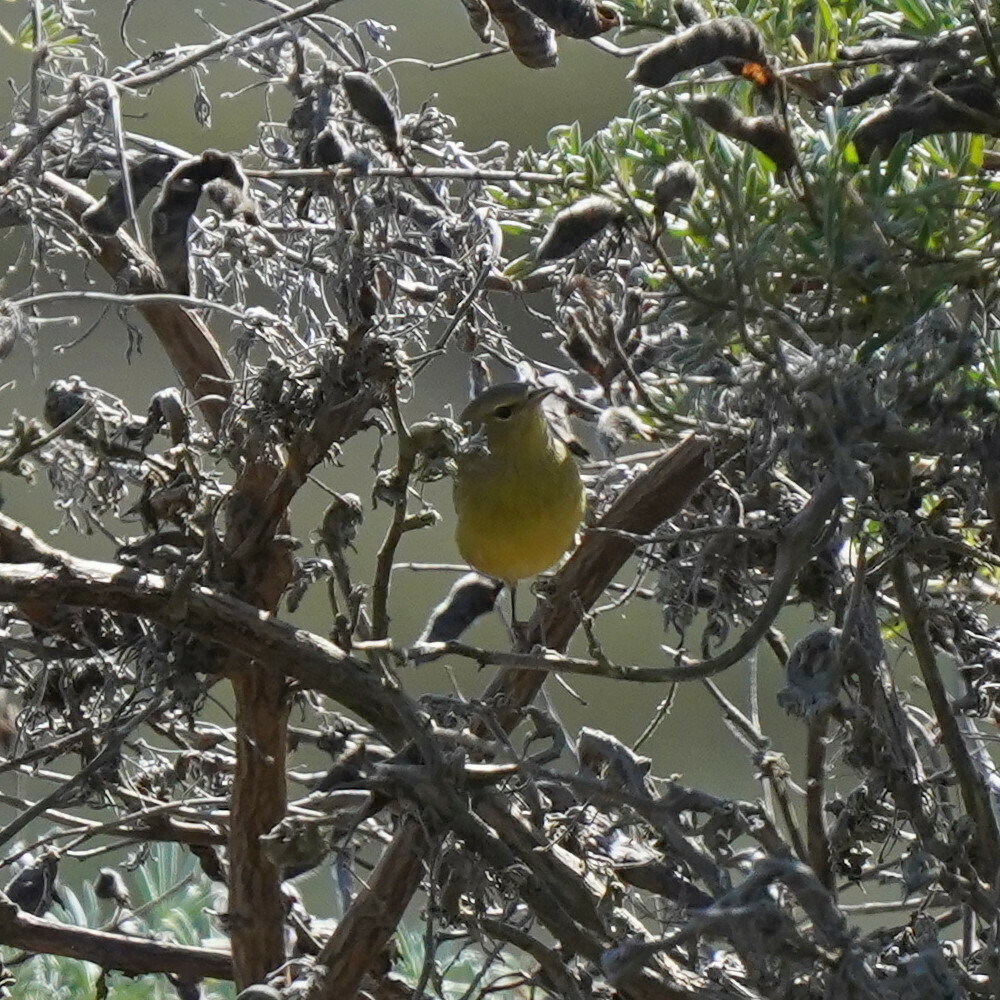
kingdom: Animalia
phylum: Chordata
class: Aves
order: Passeriformes
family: Parulidae
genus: Leiothlypis
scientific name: Leiothlypis celata
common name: Orange-crowned warbler
